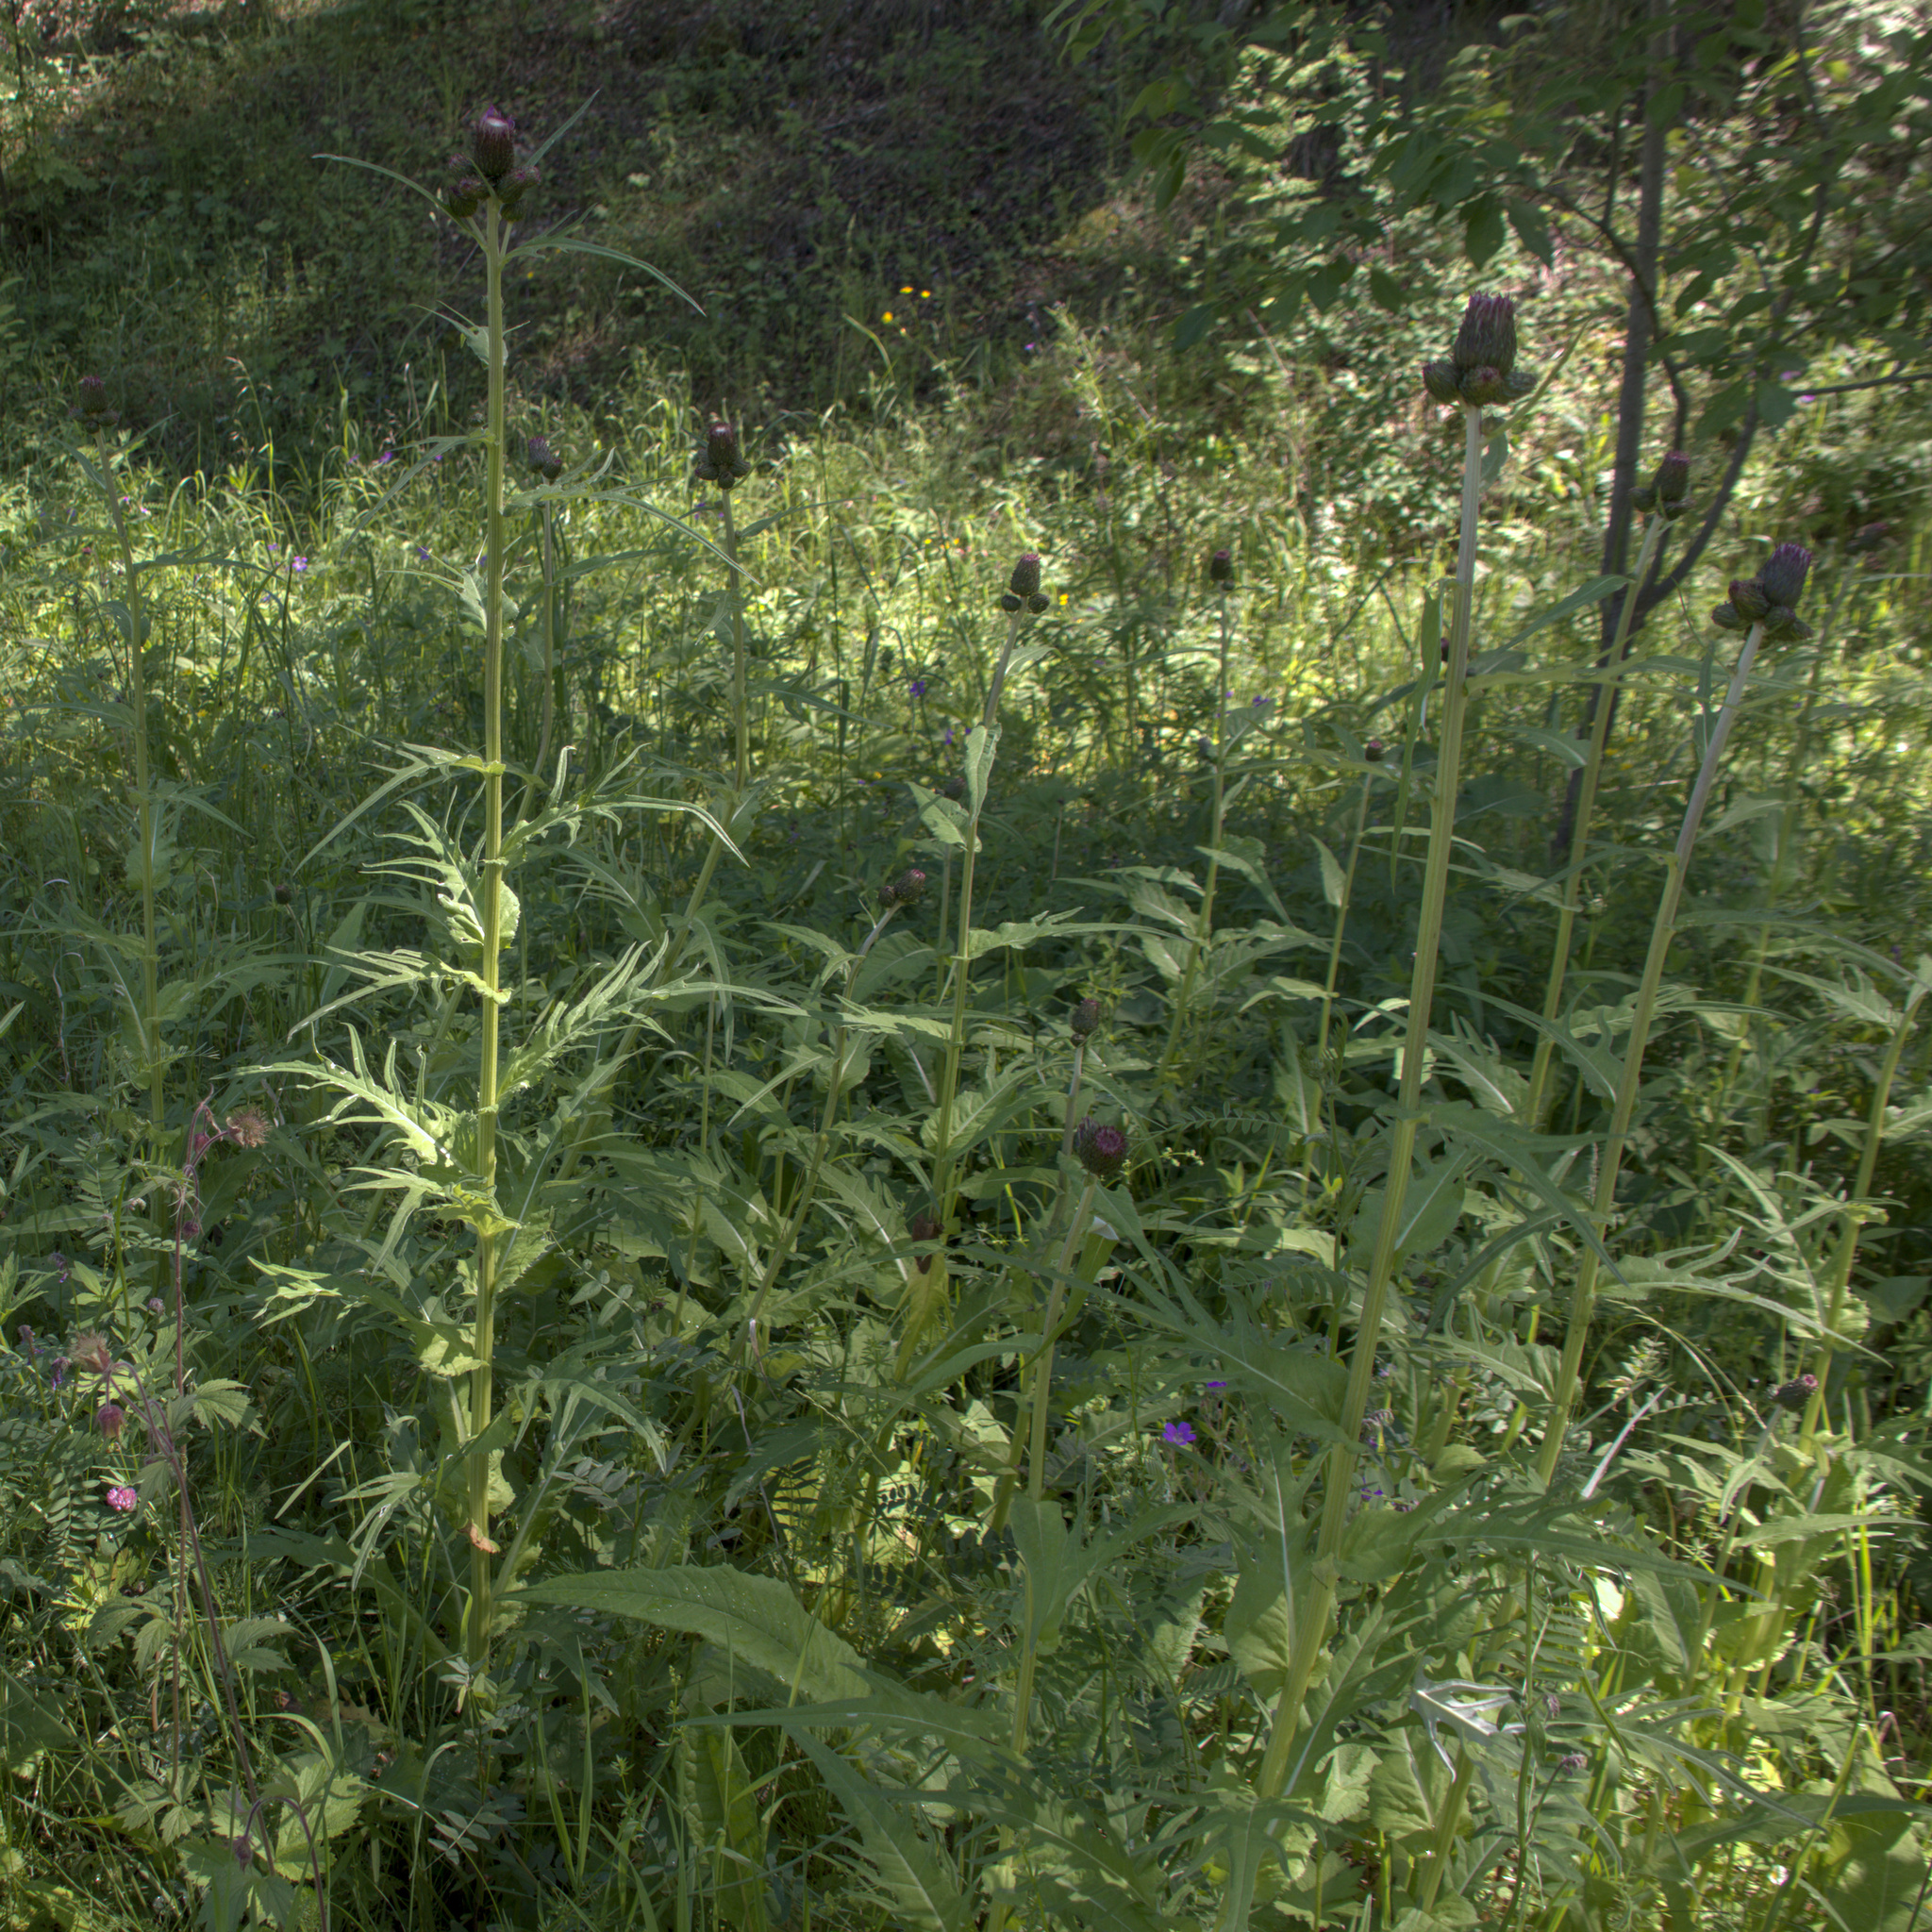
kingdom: Plantae
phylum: Tracheophyta
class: Magnoliopsida
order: Asterales
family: Asteraceae
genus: Cirsium
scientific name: Cirsium heterophyllum
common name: Melancholy thistle
